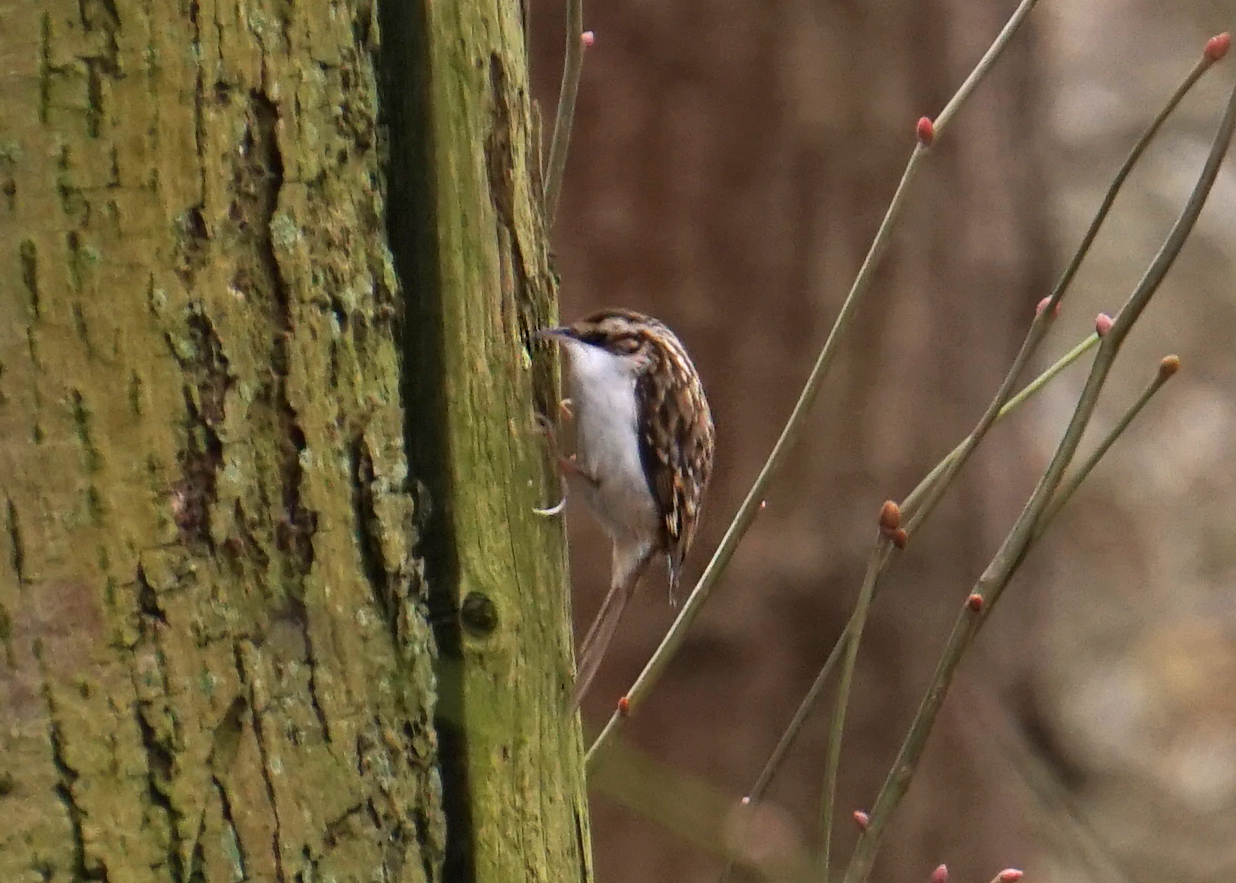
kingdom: Animalia
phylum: Chordata
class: Aves
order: Passeriformes
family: Certhiidae
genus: Certhia
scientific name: Certhia familiaris
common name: Eurasian treecreeper
